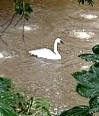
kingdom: Animalia
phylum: Chordata
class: Aves
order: Anseriformes
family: Anatidae
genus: Cygnus
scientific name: Cygnus olor
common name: Mute swan
